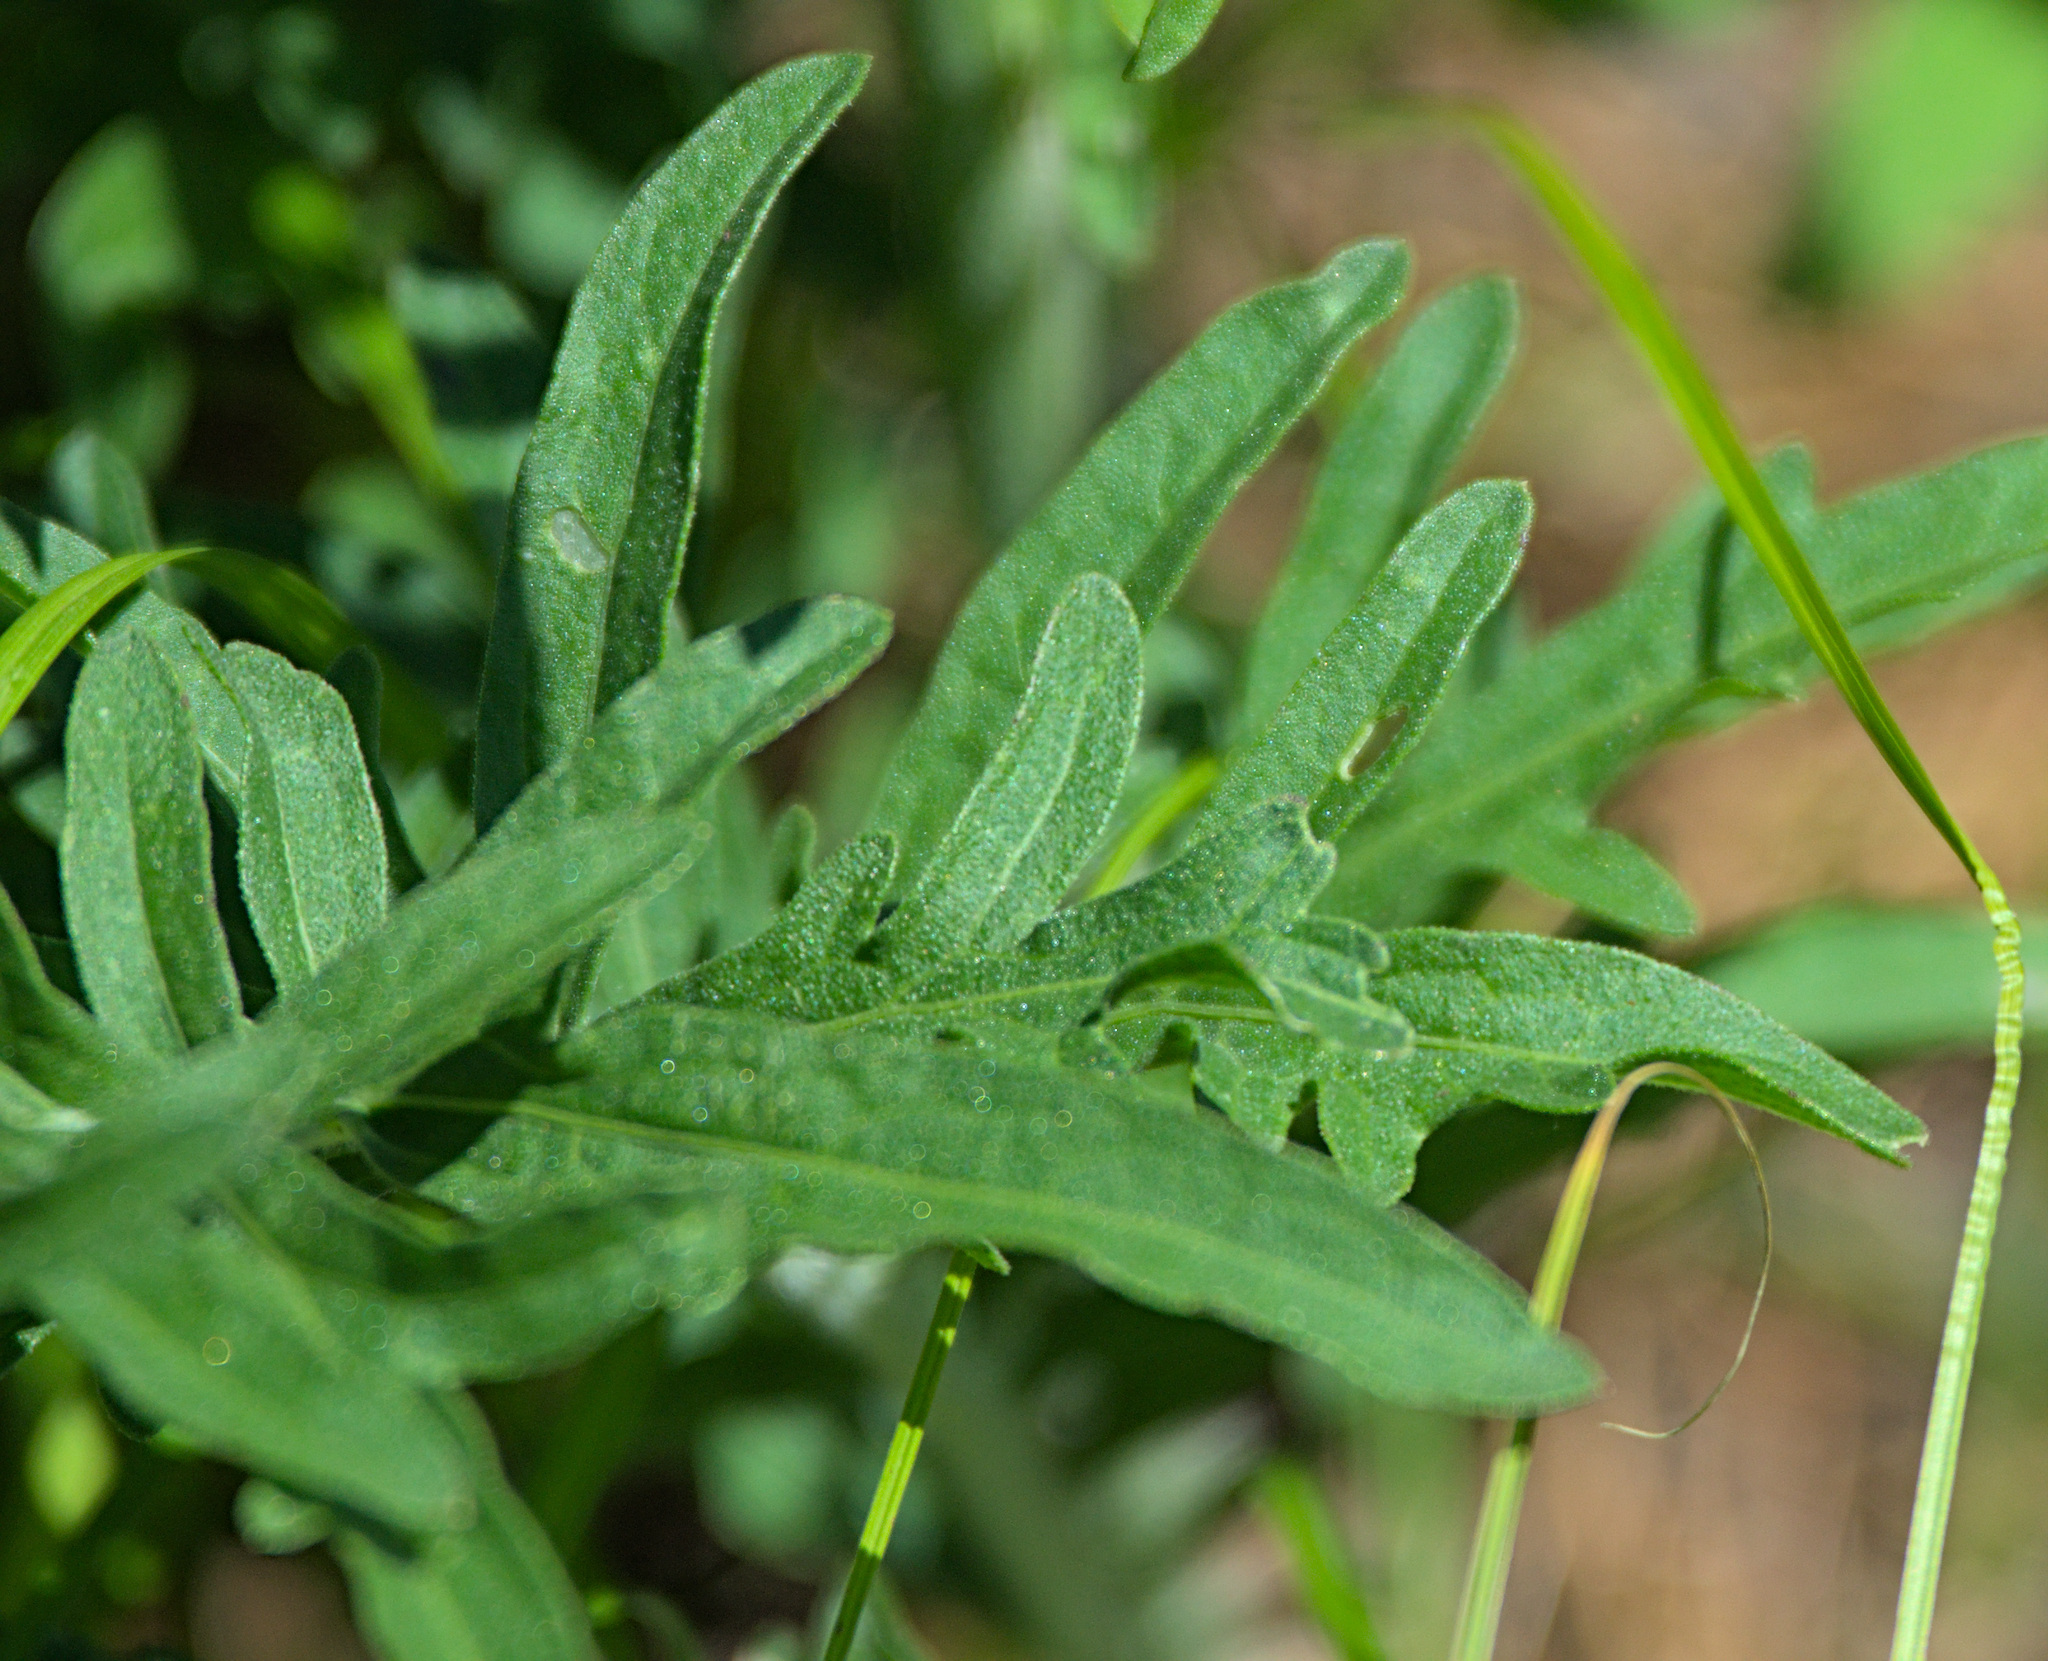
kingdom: Plantae
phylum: Tracheophyta
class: Magnoliopsida
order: Asterales
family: Asteraceae
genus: Centaurea
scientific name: Centaurea scabiosa
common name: Greater knapweed
